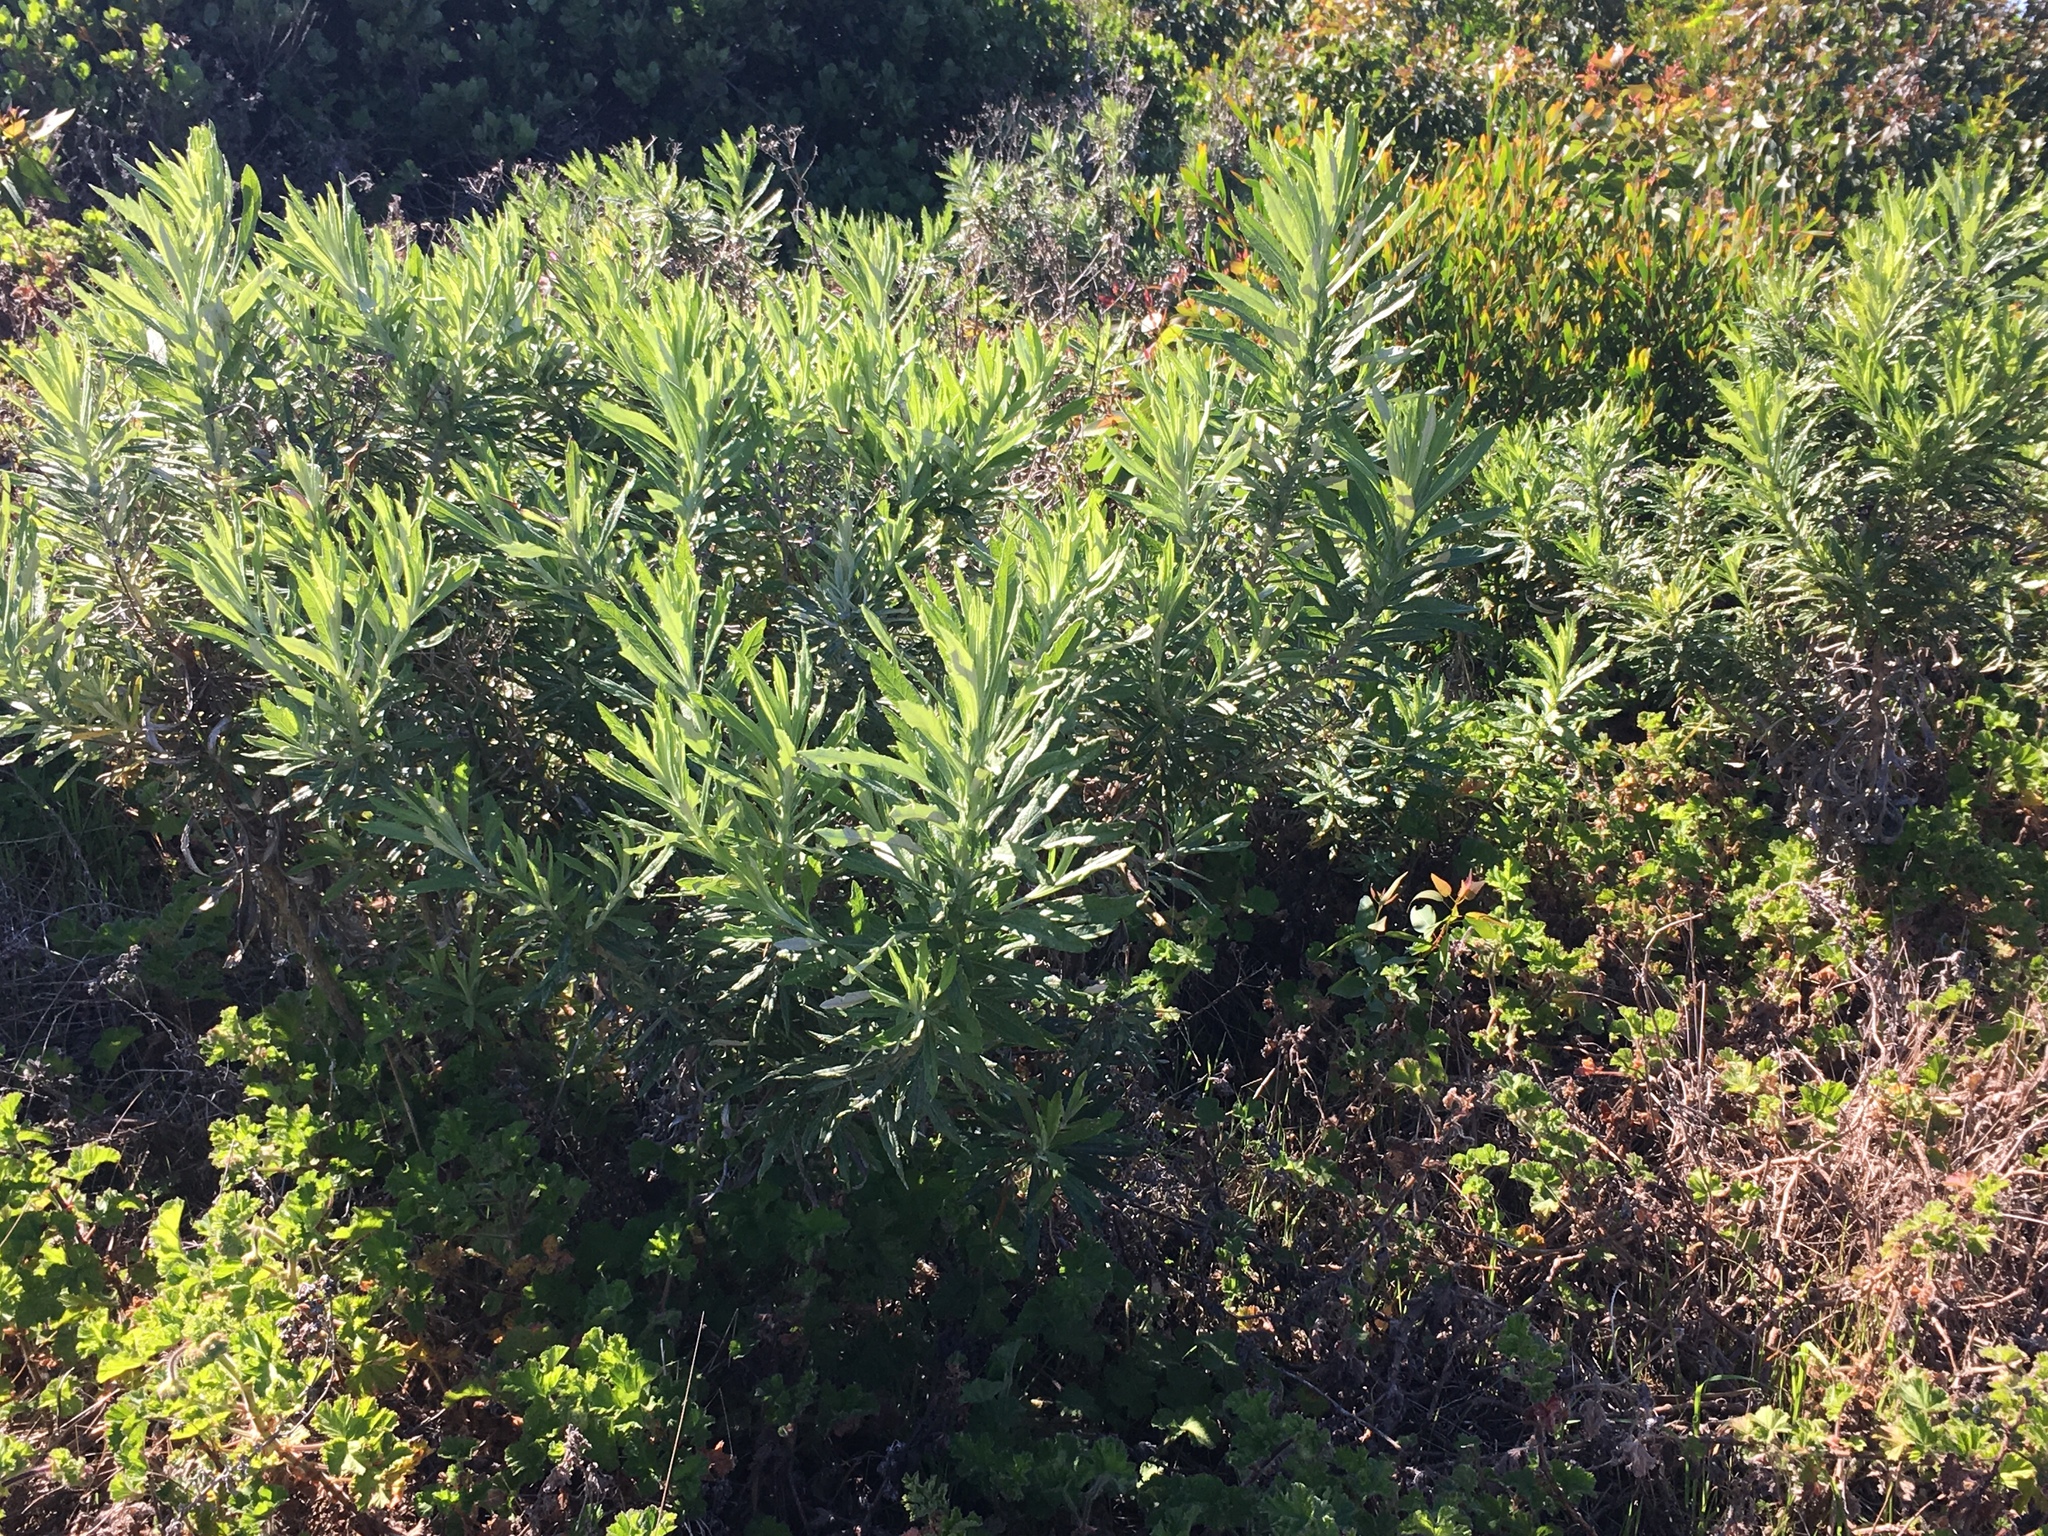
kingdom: Plantae
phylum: Tracheophyta
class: Magnoliopsida
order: Asterales
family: Asteraceae
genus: Senecio
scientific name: Senecio pterophorus
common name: Shoddy ragwort
